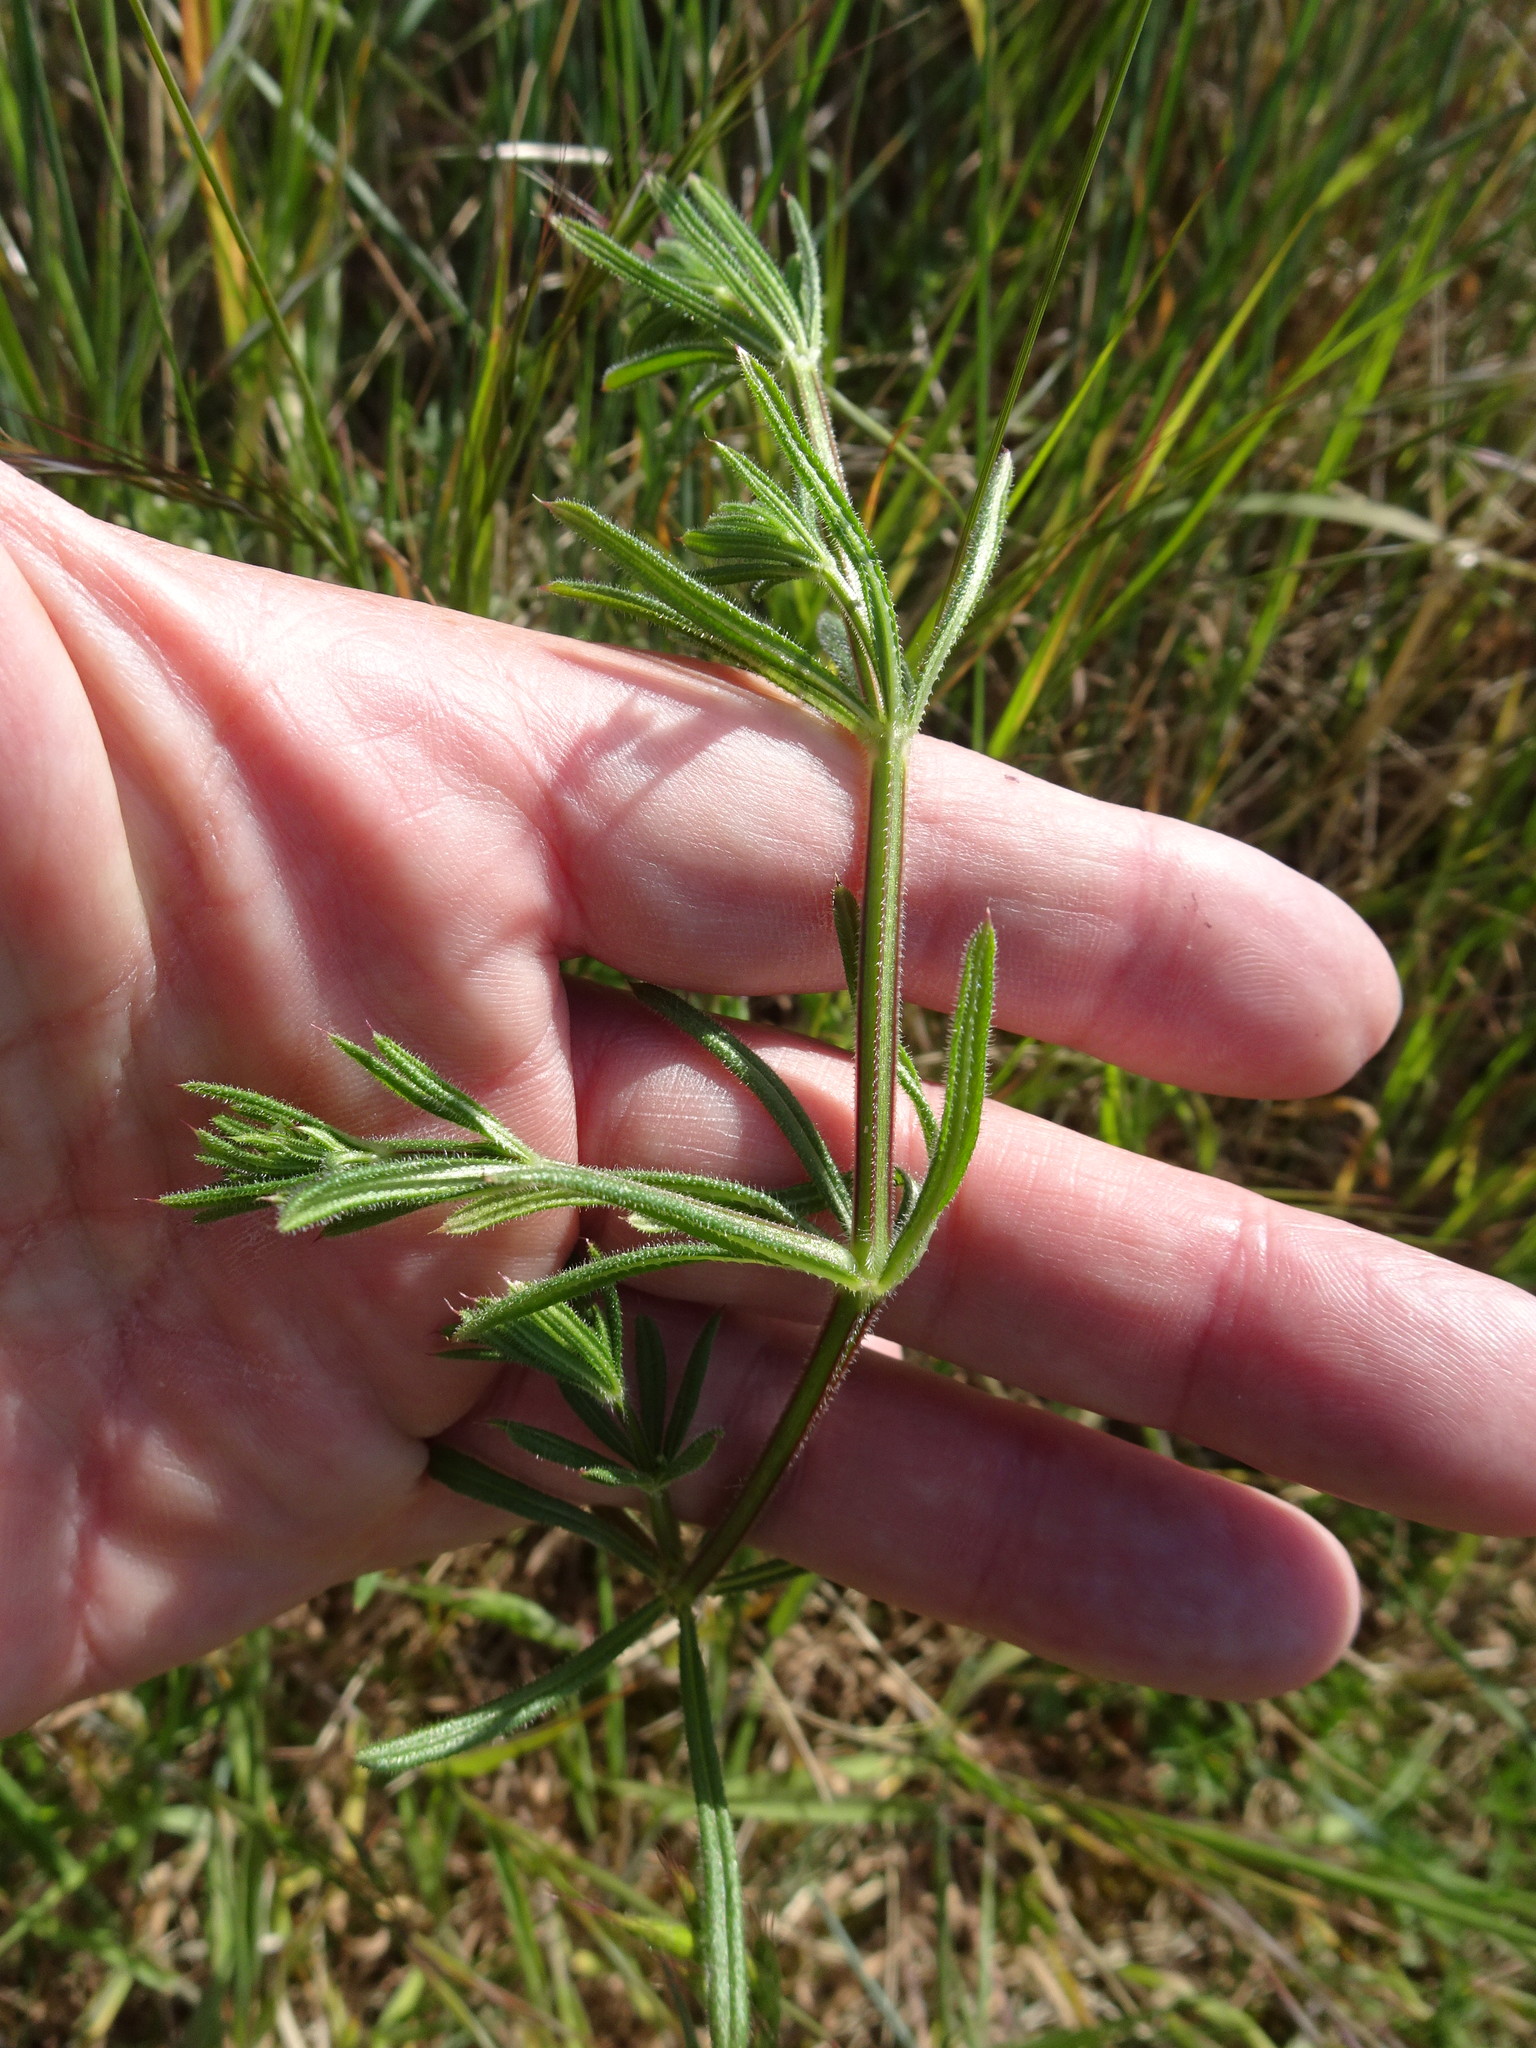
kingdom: Plantae
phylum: Tracheophyta
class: Magnoliopsida
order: Gentianales
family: Rubiaceae
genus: Galium
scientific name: Galium aparine
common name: Cleavers
